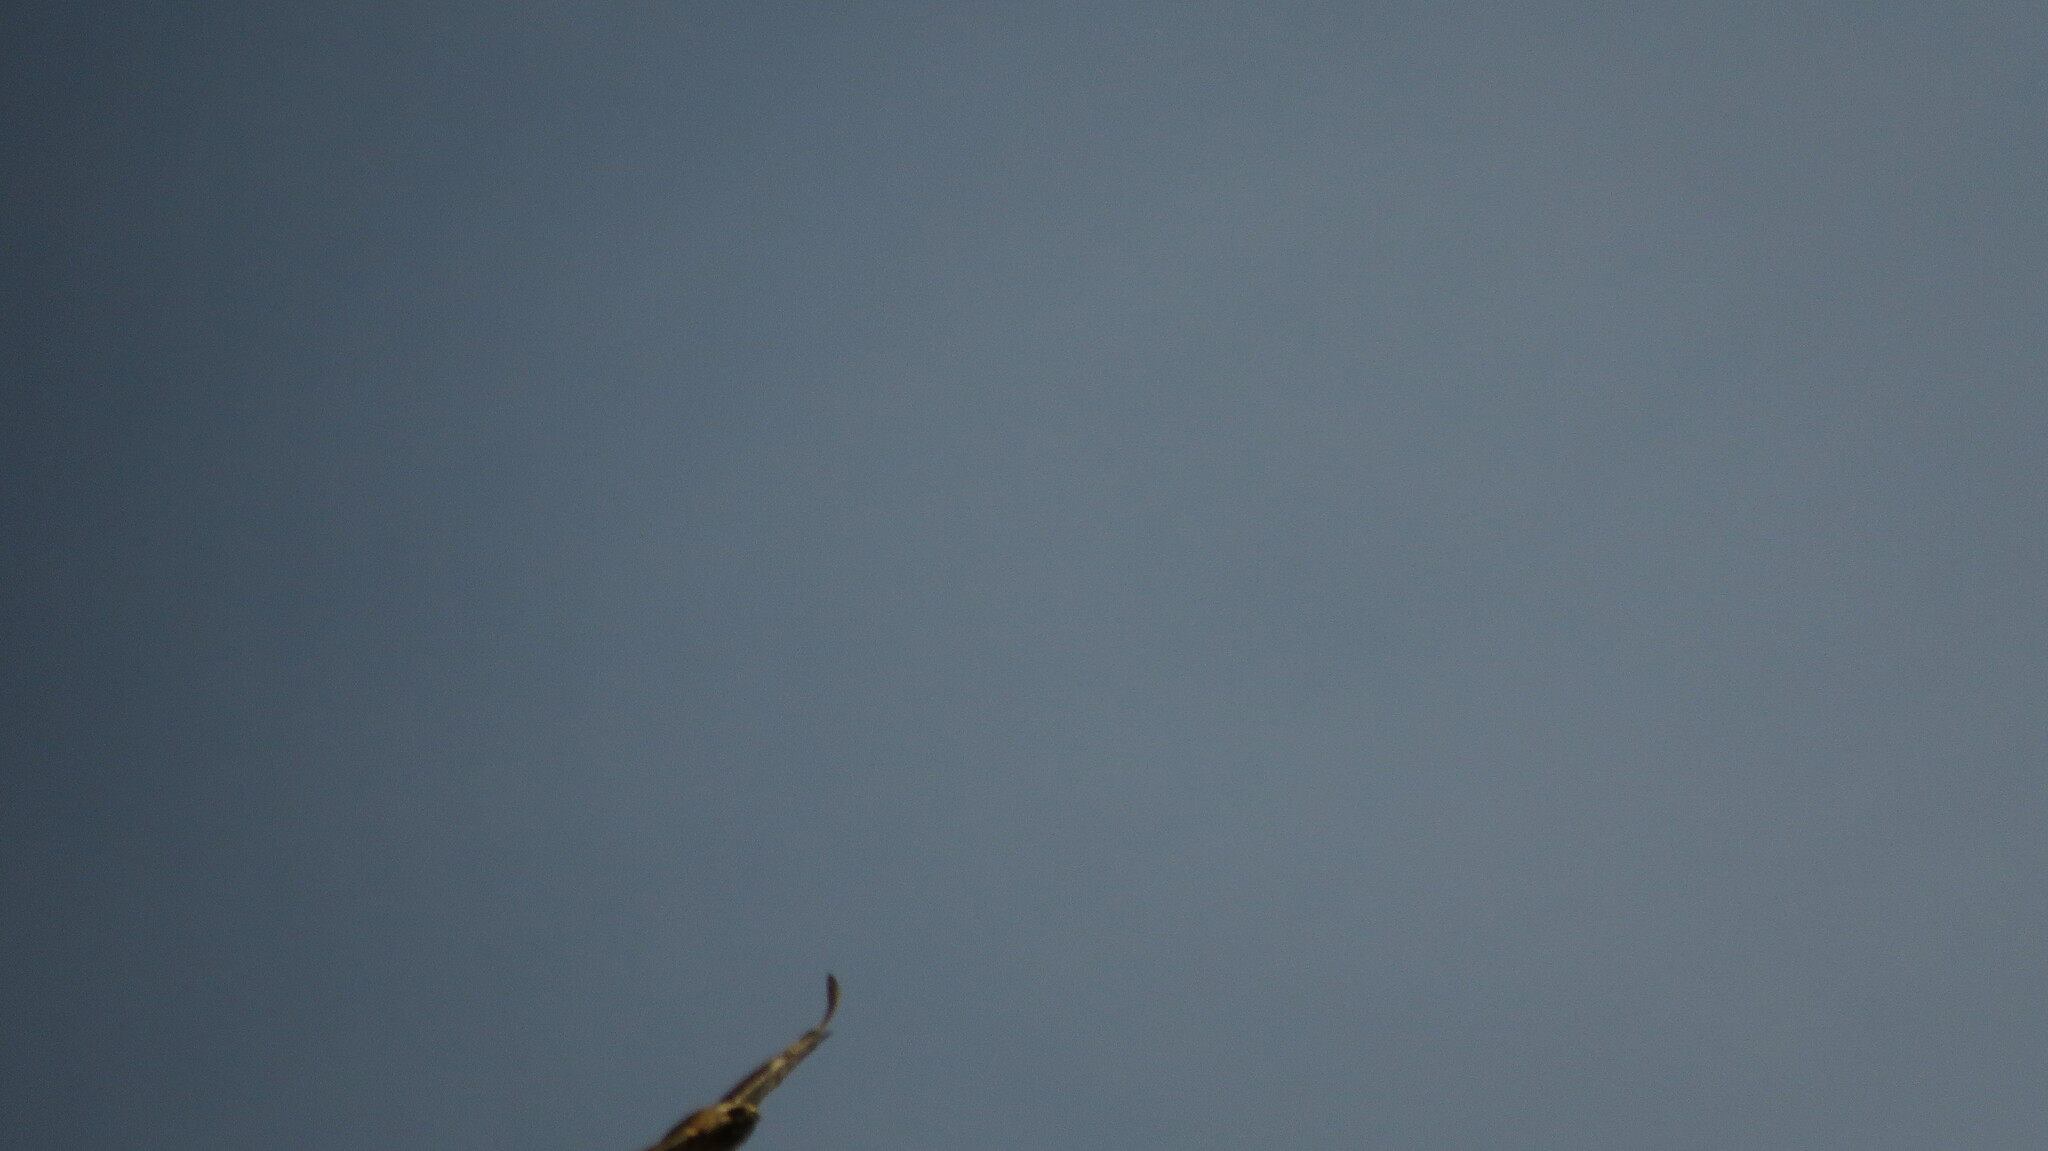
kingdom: Animalia
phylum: Chordata
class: Aves
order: Accipitriformes
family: Accipitridae
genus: Buteo
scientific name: Buteo jamaicensis
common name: Red-tailed hawk
